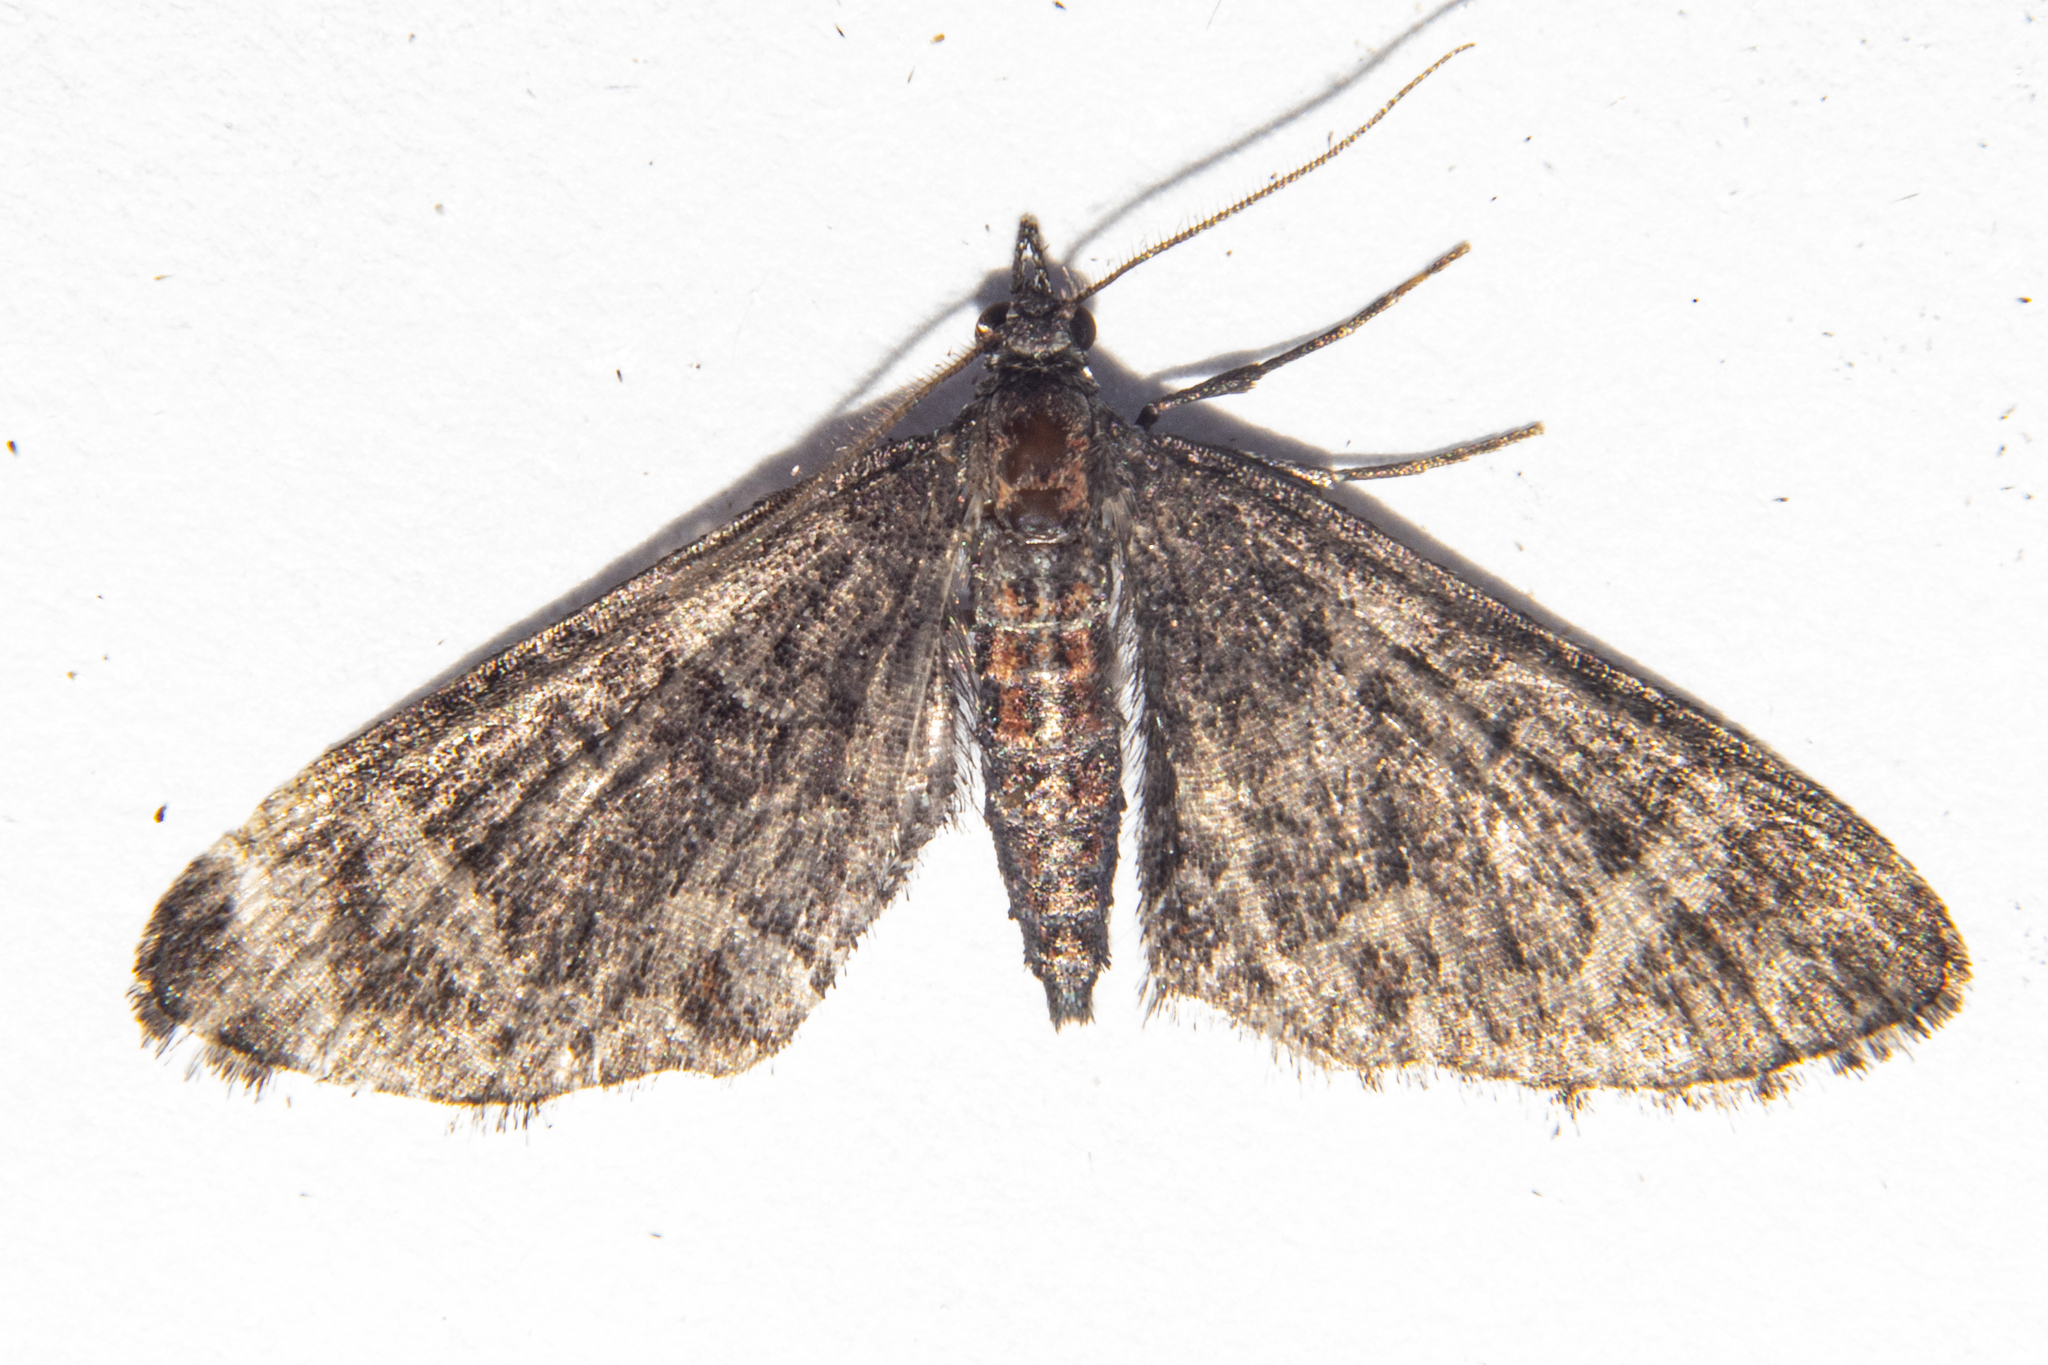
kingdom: Animalia
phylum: Arthropoda
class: Insecta
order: Lepidoptera
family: Geometridae
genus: Pasiphila
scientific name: Pasiphila erratica
